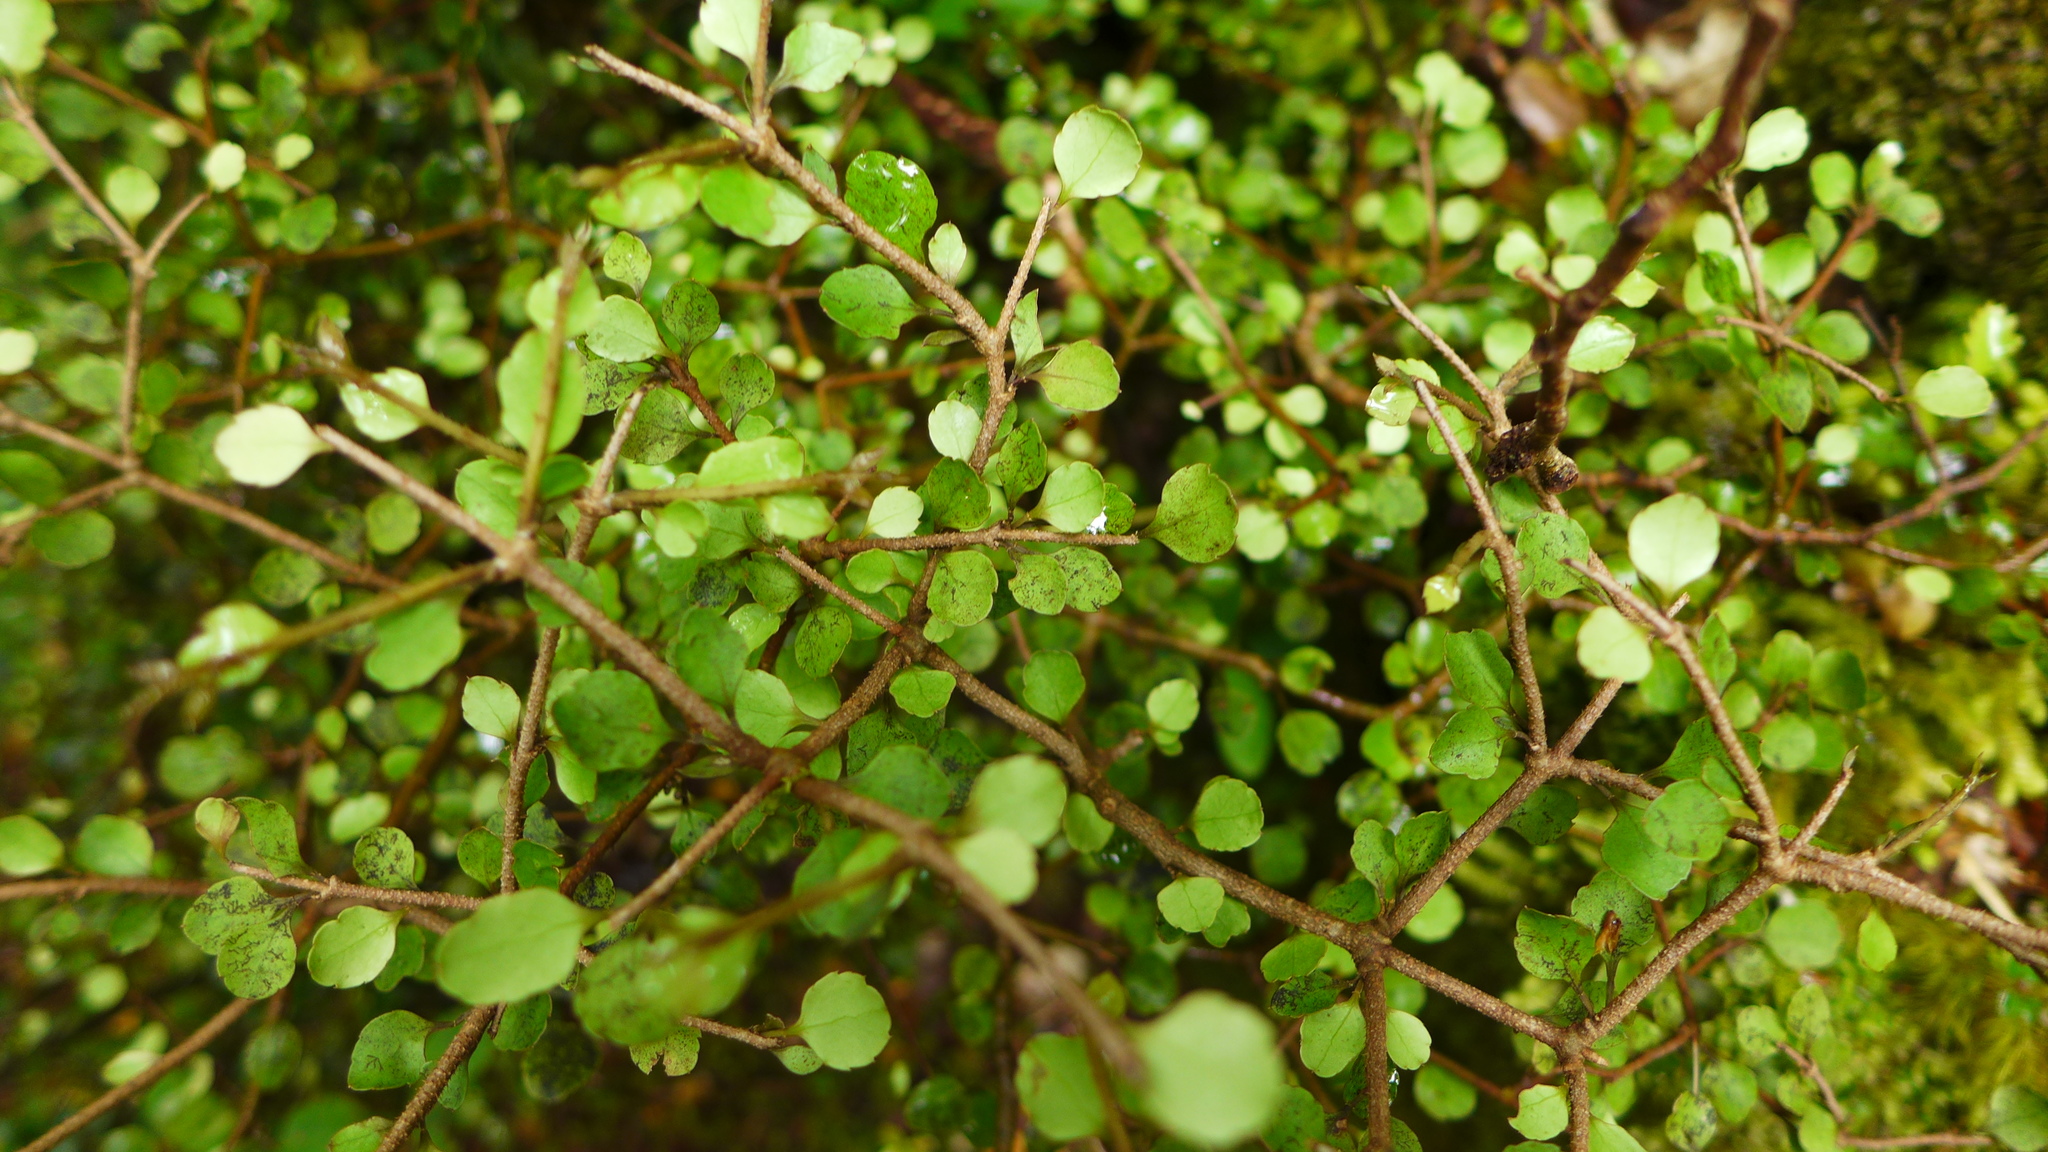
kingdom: Plantae
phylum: Tracheophyta
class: Magnoliopsida
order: Apiales
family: Araliaceae
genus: Raukaua
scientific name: Raukaua anomalus
